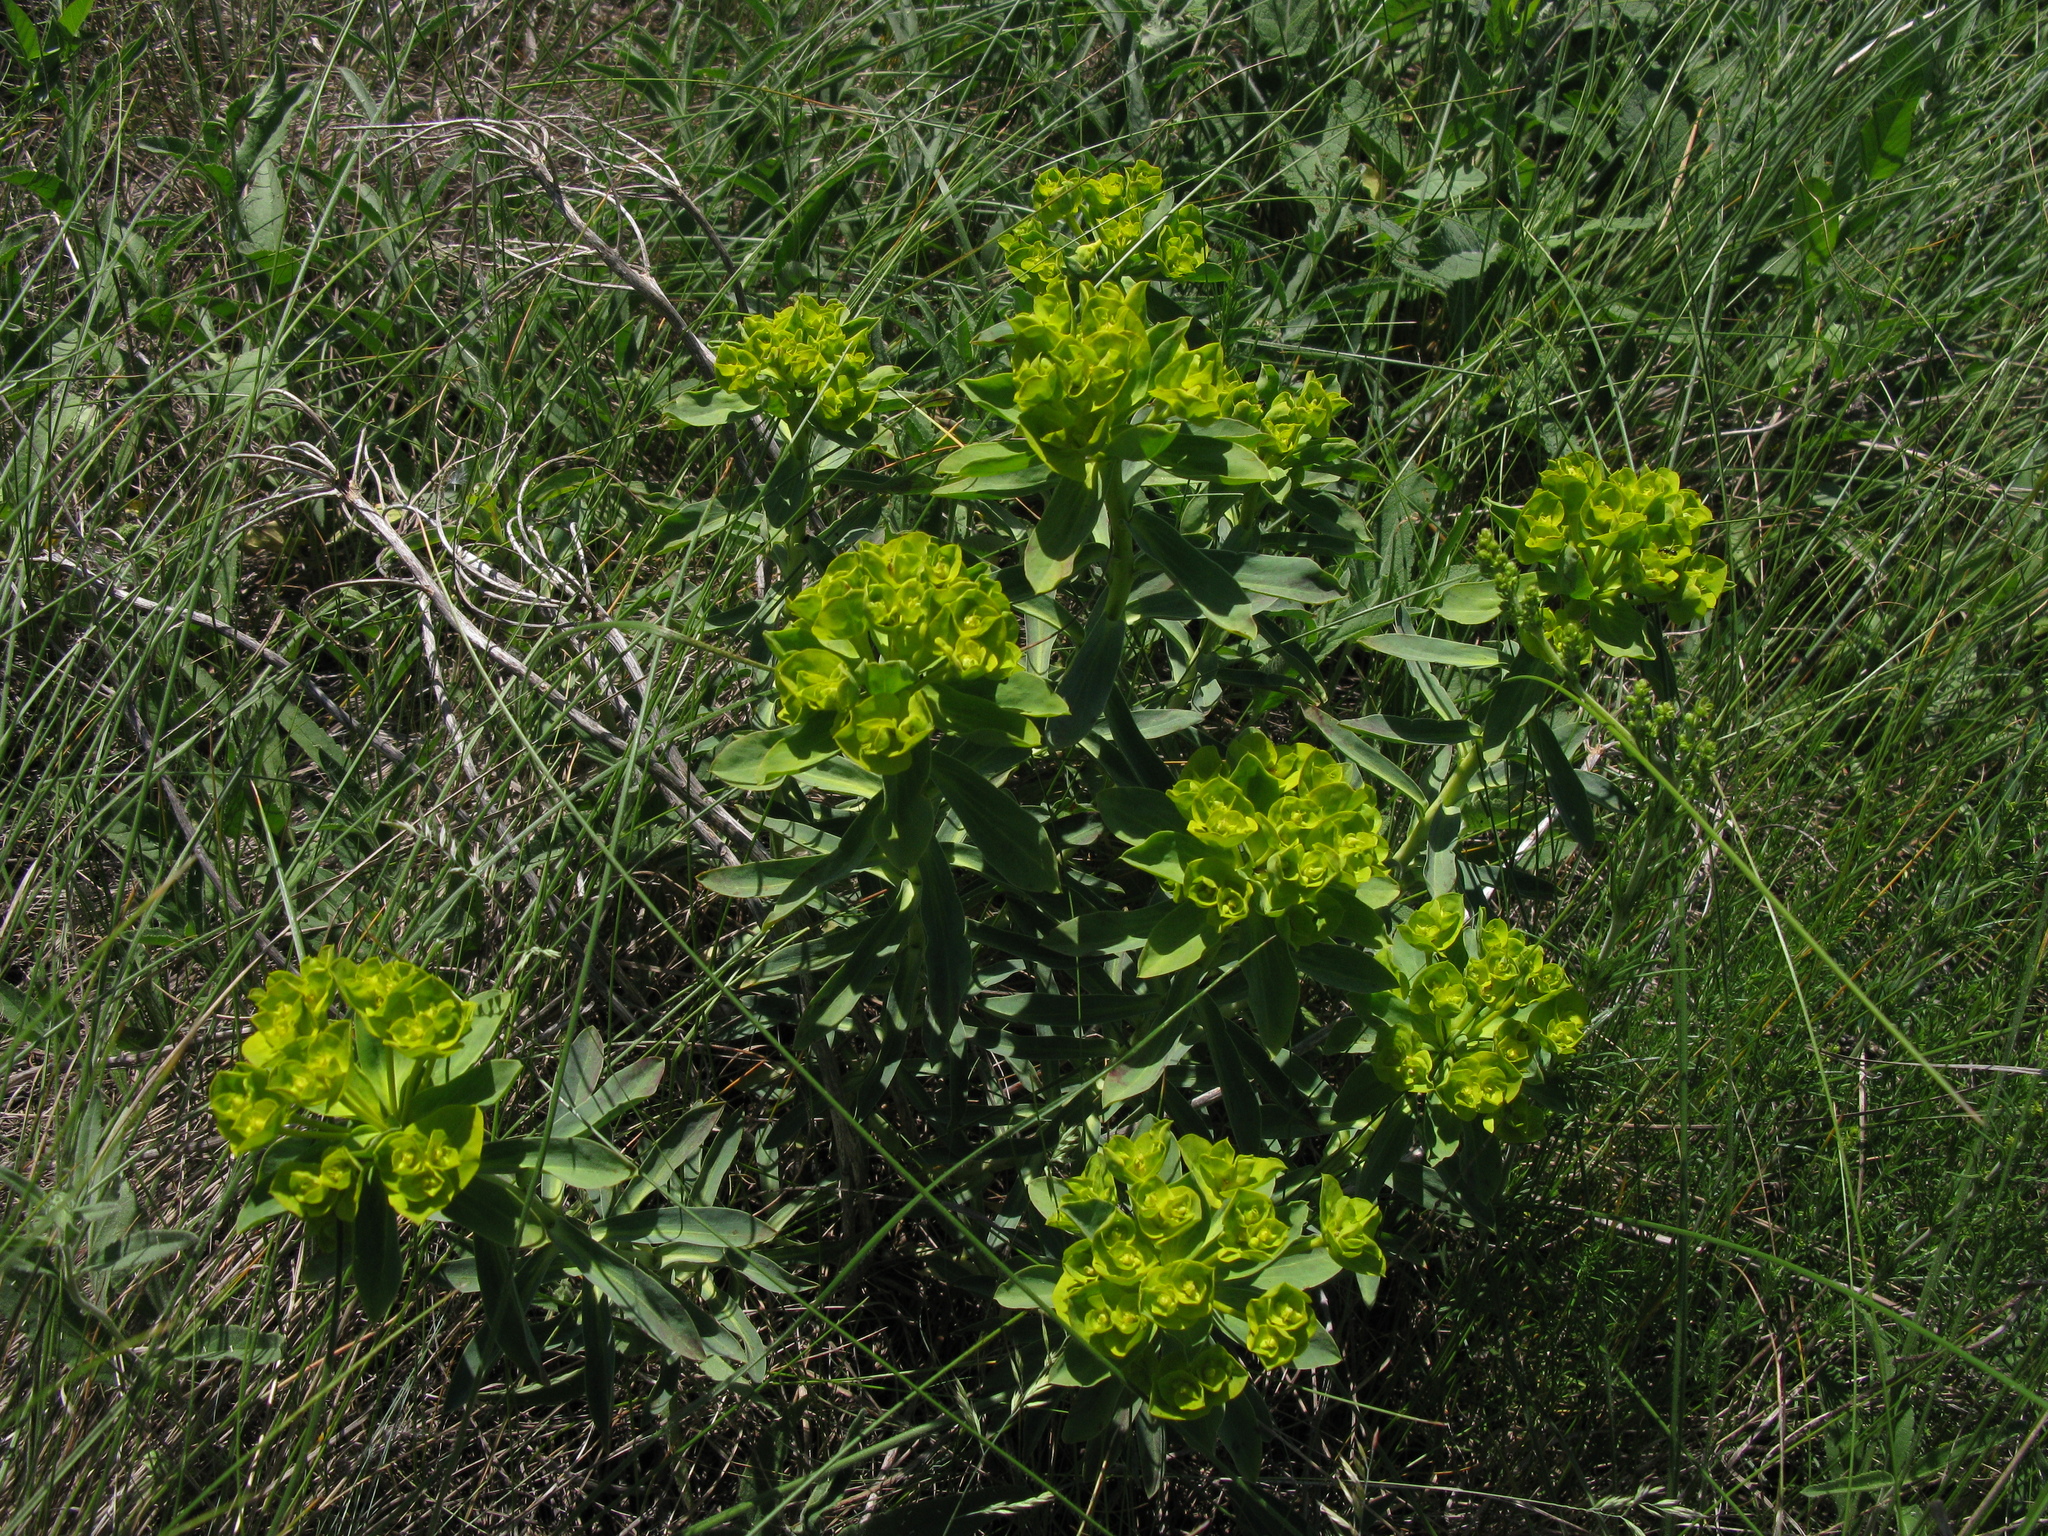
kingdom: Plantae
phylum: Tracheophyta
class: Magnoliopsida
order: Malpighiales
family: Euphorbiaceae
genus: Euphorbia
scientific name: Euphorbia stepposa
